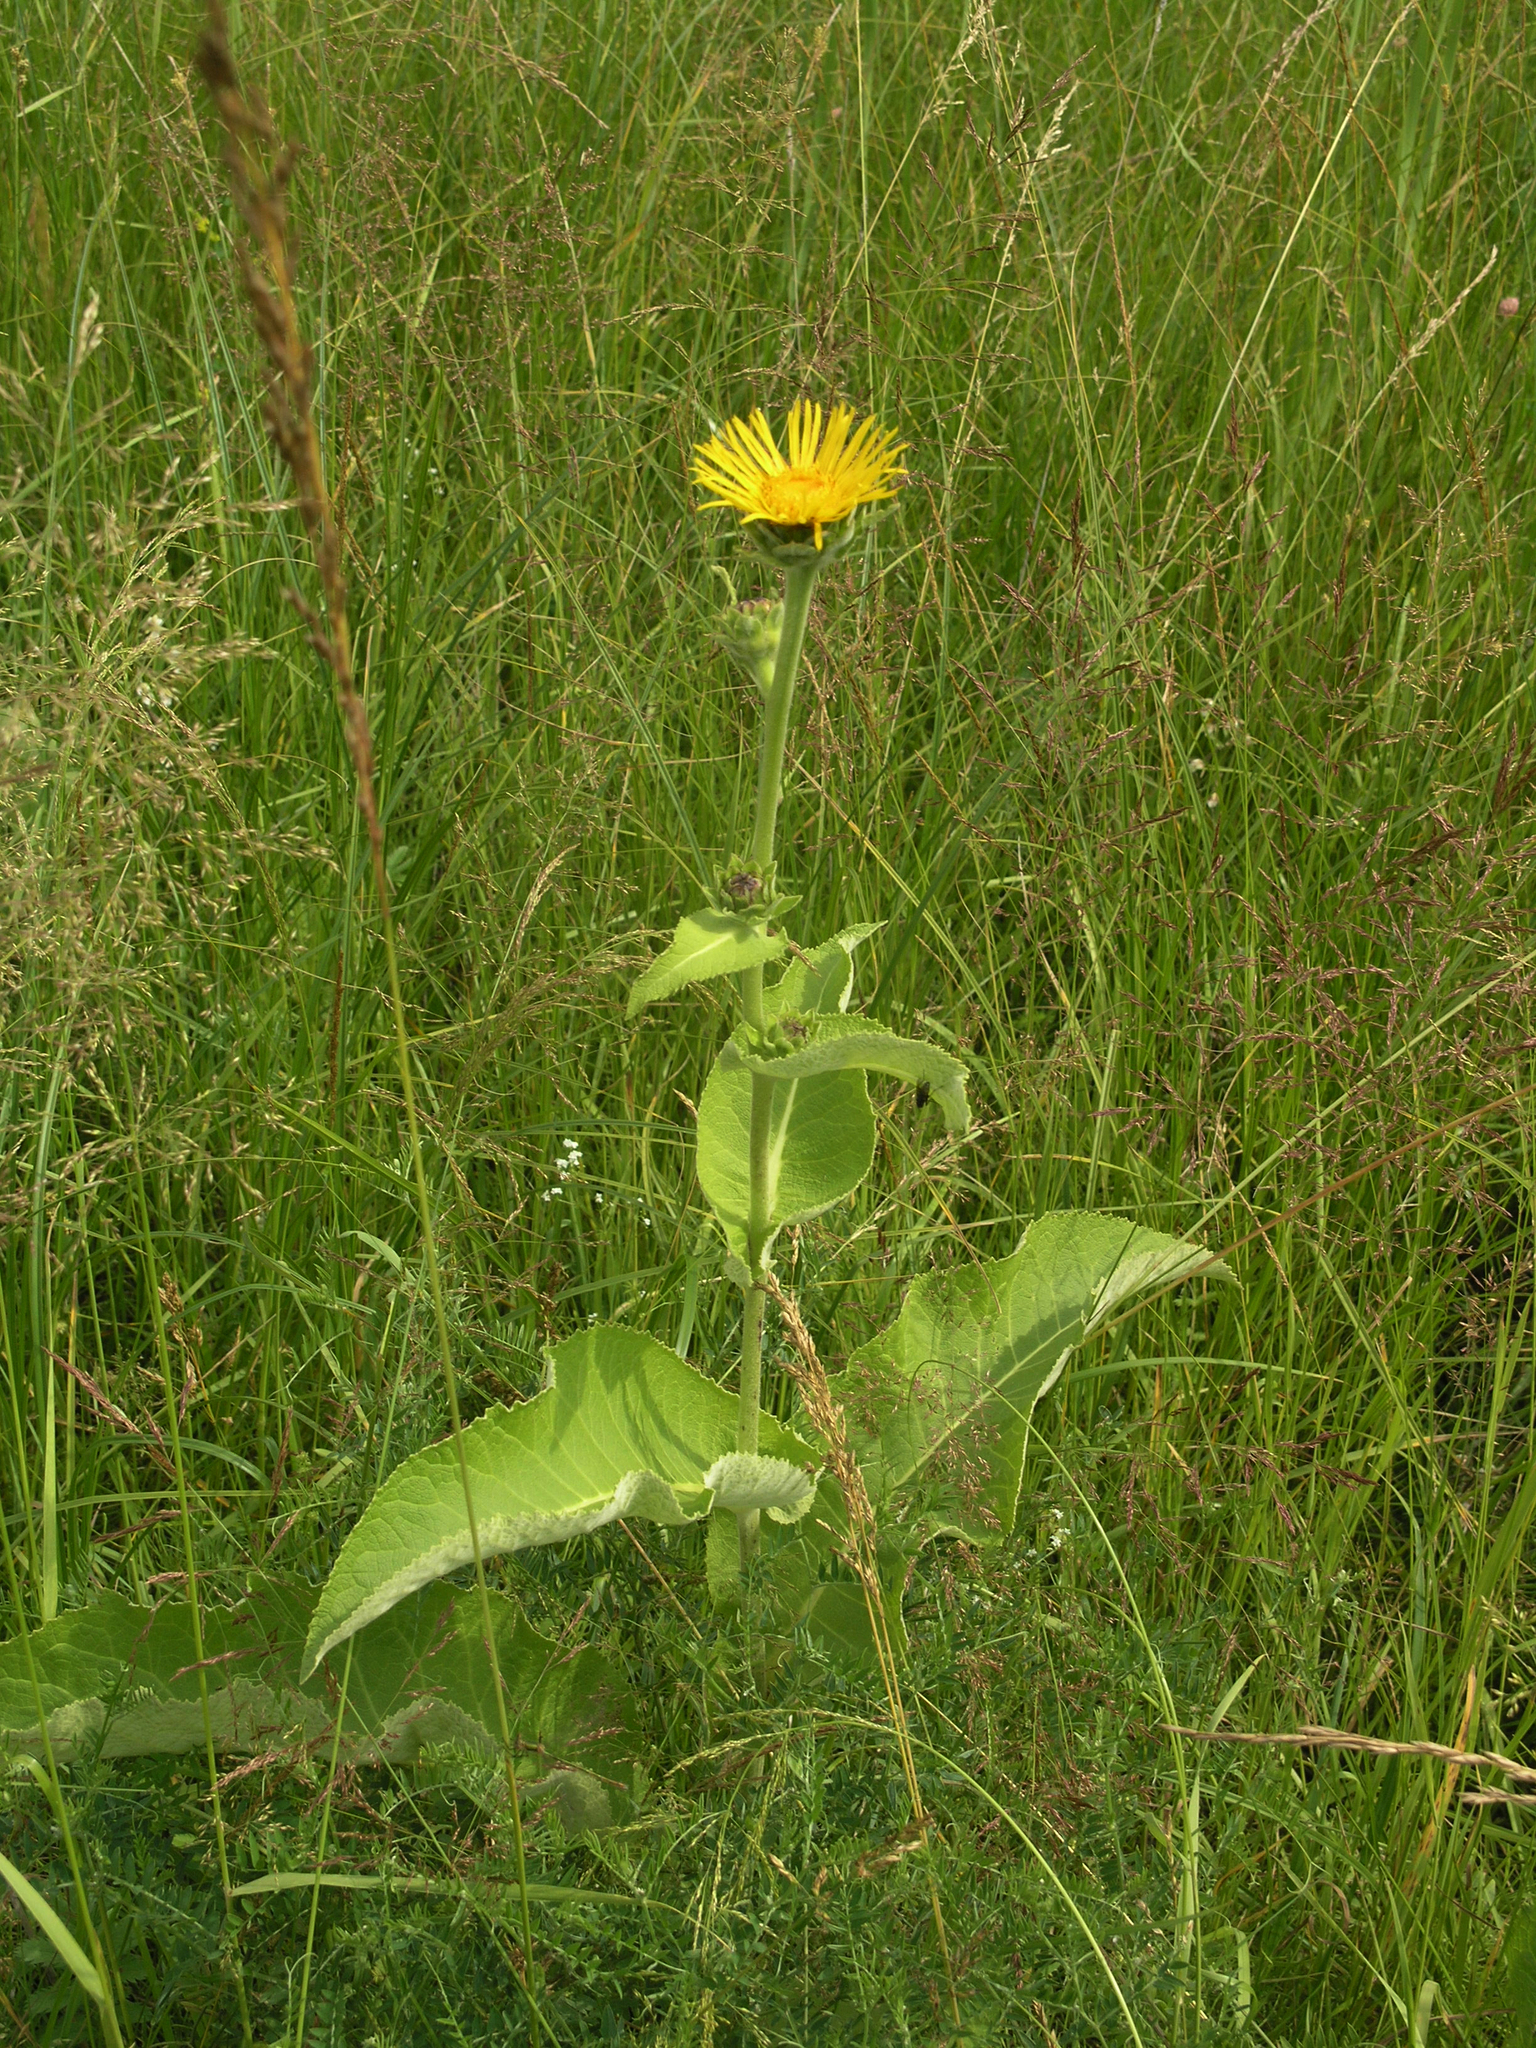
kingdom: Plantae
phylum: Tracheophyta
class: Magnoliopsida
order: Asterales
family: Asteraceae
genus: Inula
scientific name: Inula helenium
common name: Elecampane
